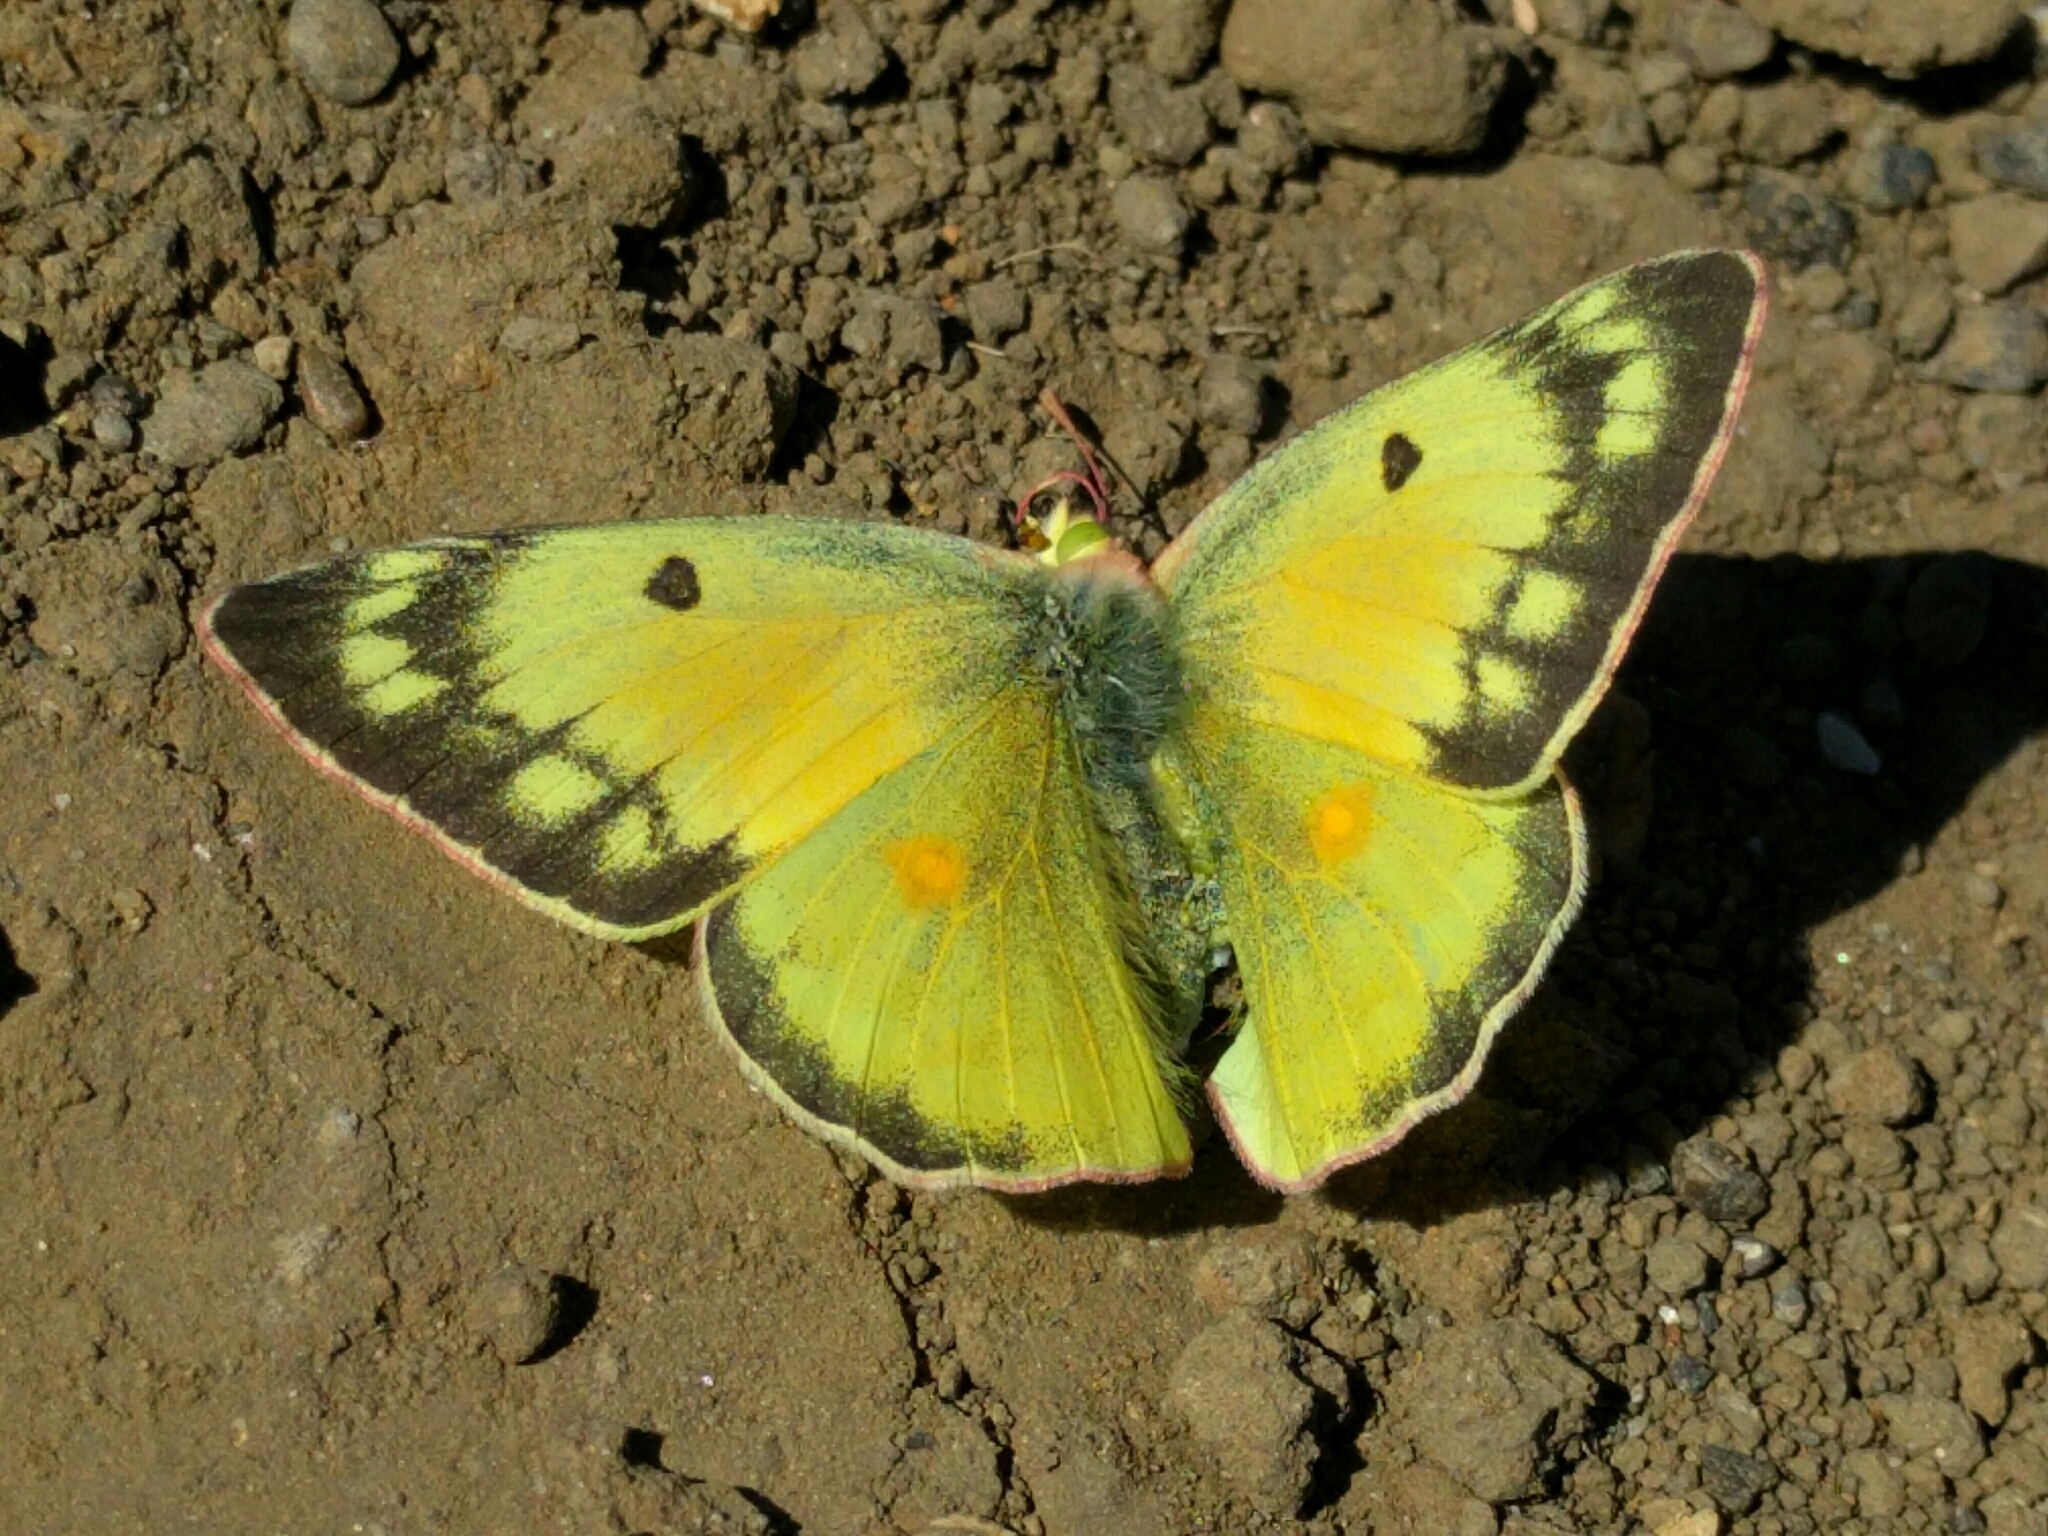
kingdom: Animalia
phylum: Arthropoda
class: Insecta
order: Lepidoptera
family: Pieridae
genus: Colias
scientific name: Colias eurytheme
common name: Alfalfa butterfly
